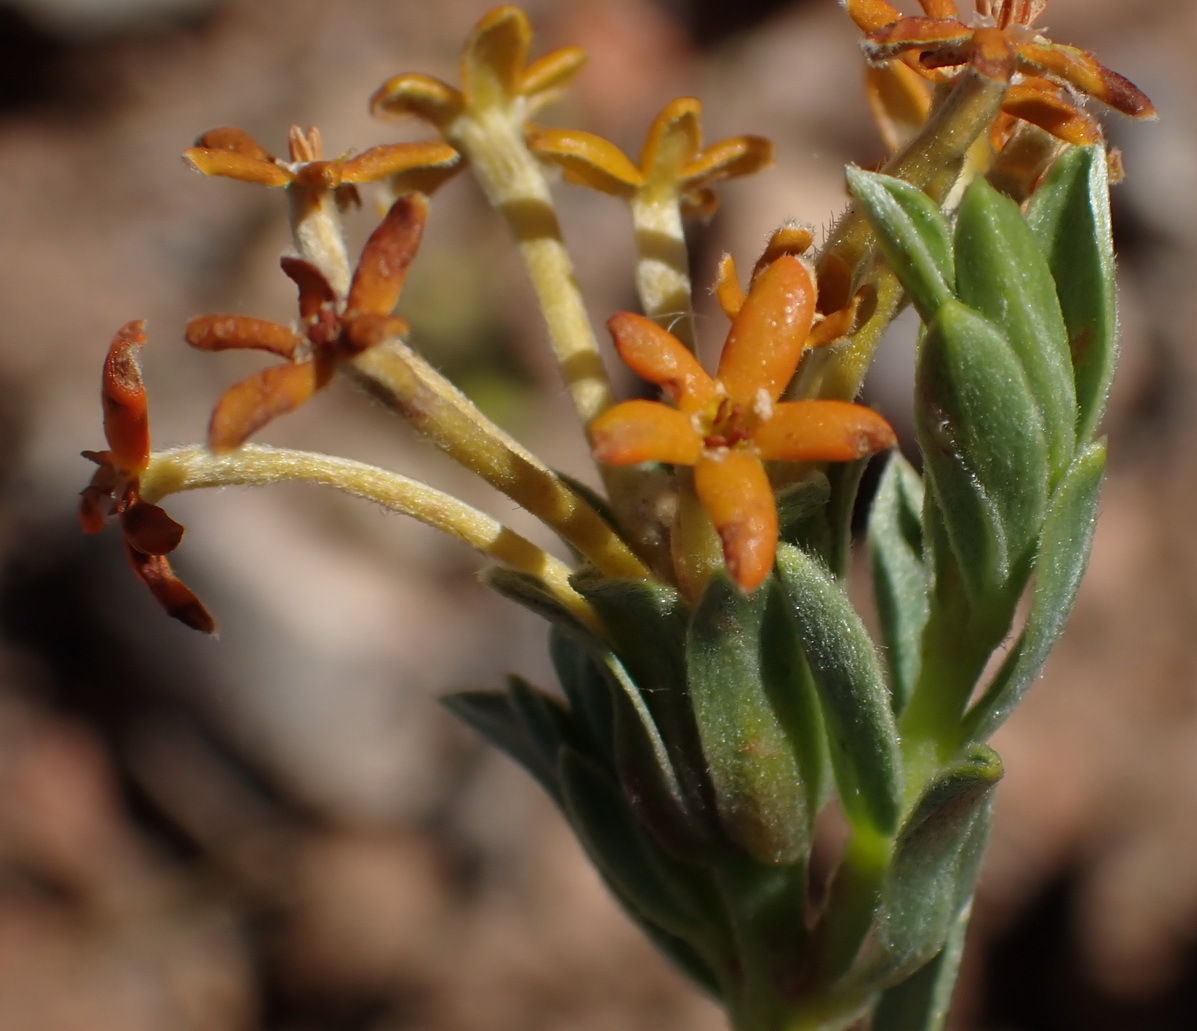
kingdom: Plantae
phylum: Tracheophyta
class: Magnoliopsida
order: Malvales
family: Thymelaeaceae
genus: Gnidia
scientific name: Gnidia cuneata
